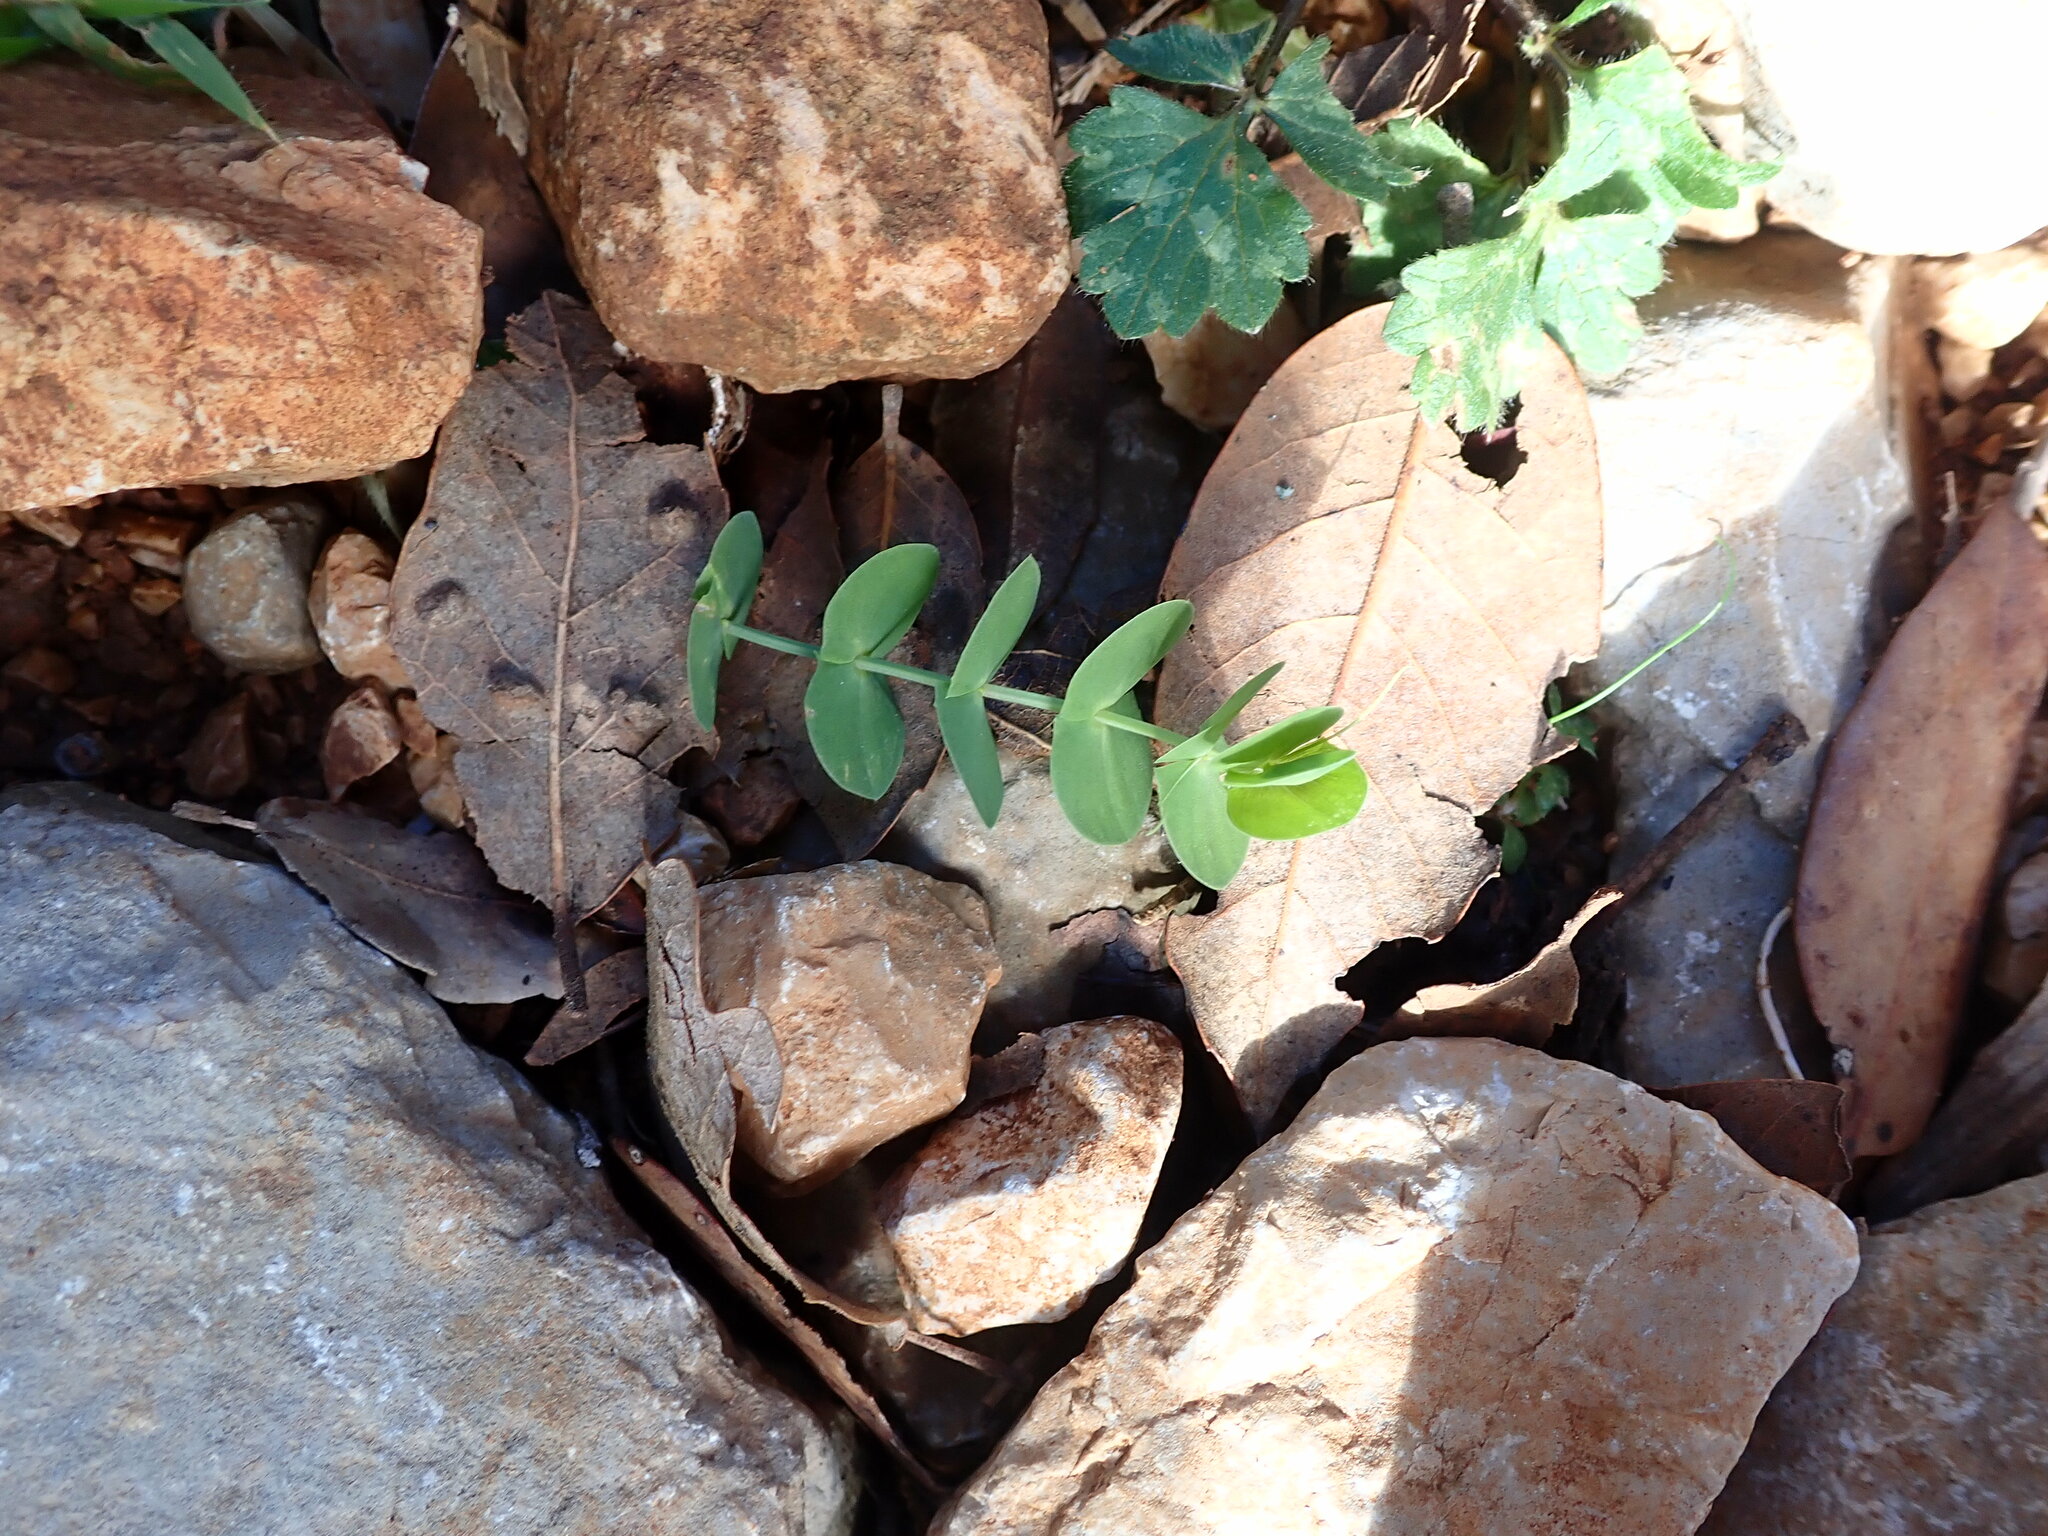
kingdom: Plantae
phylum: Tracheophyta
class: Magnoliopsida
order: Fabales
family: Fabaceae
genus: Lathyrus
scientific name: Lathyrus aphaca
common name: Yellow vetchling
